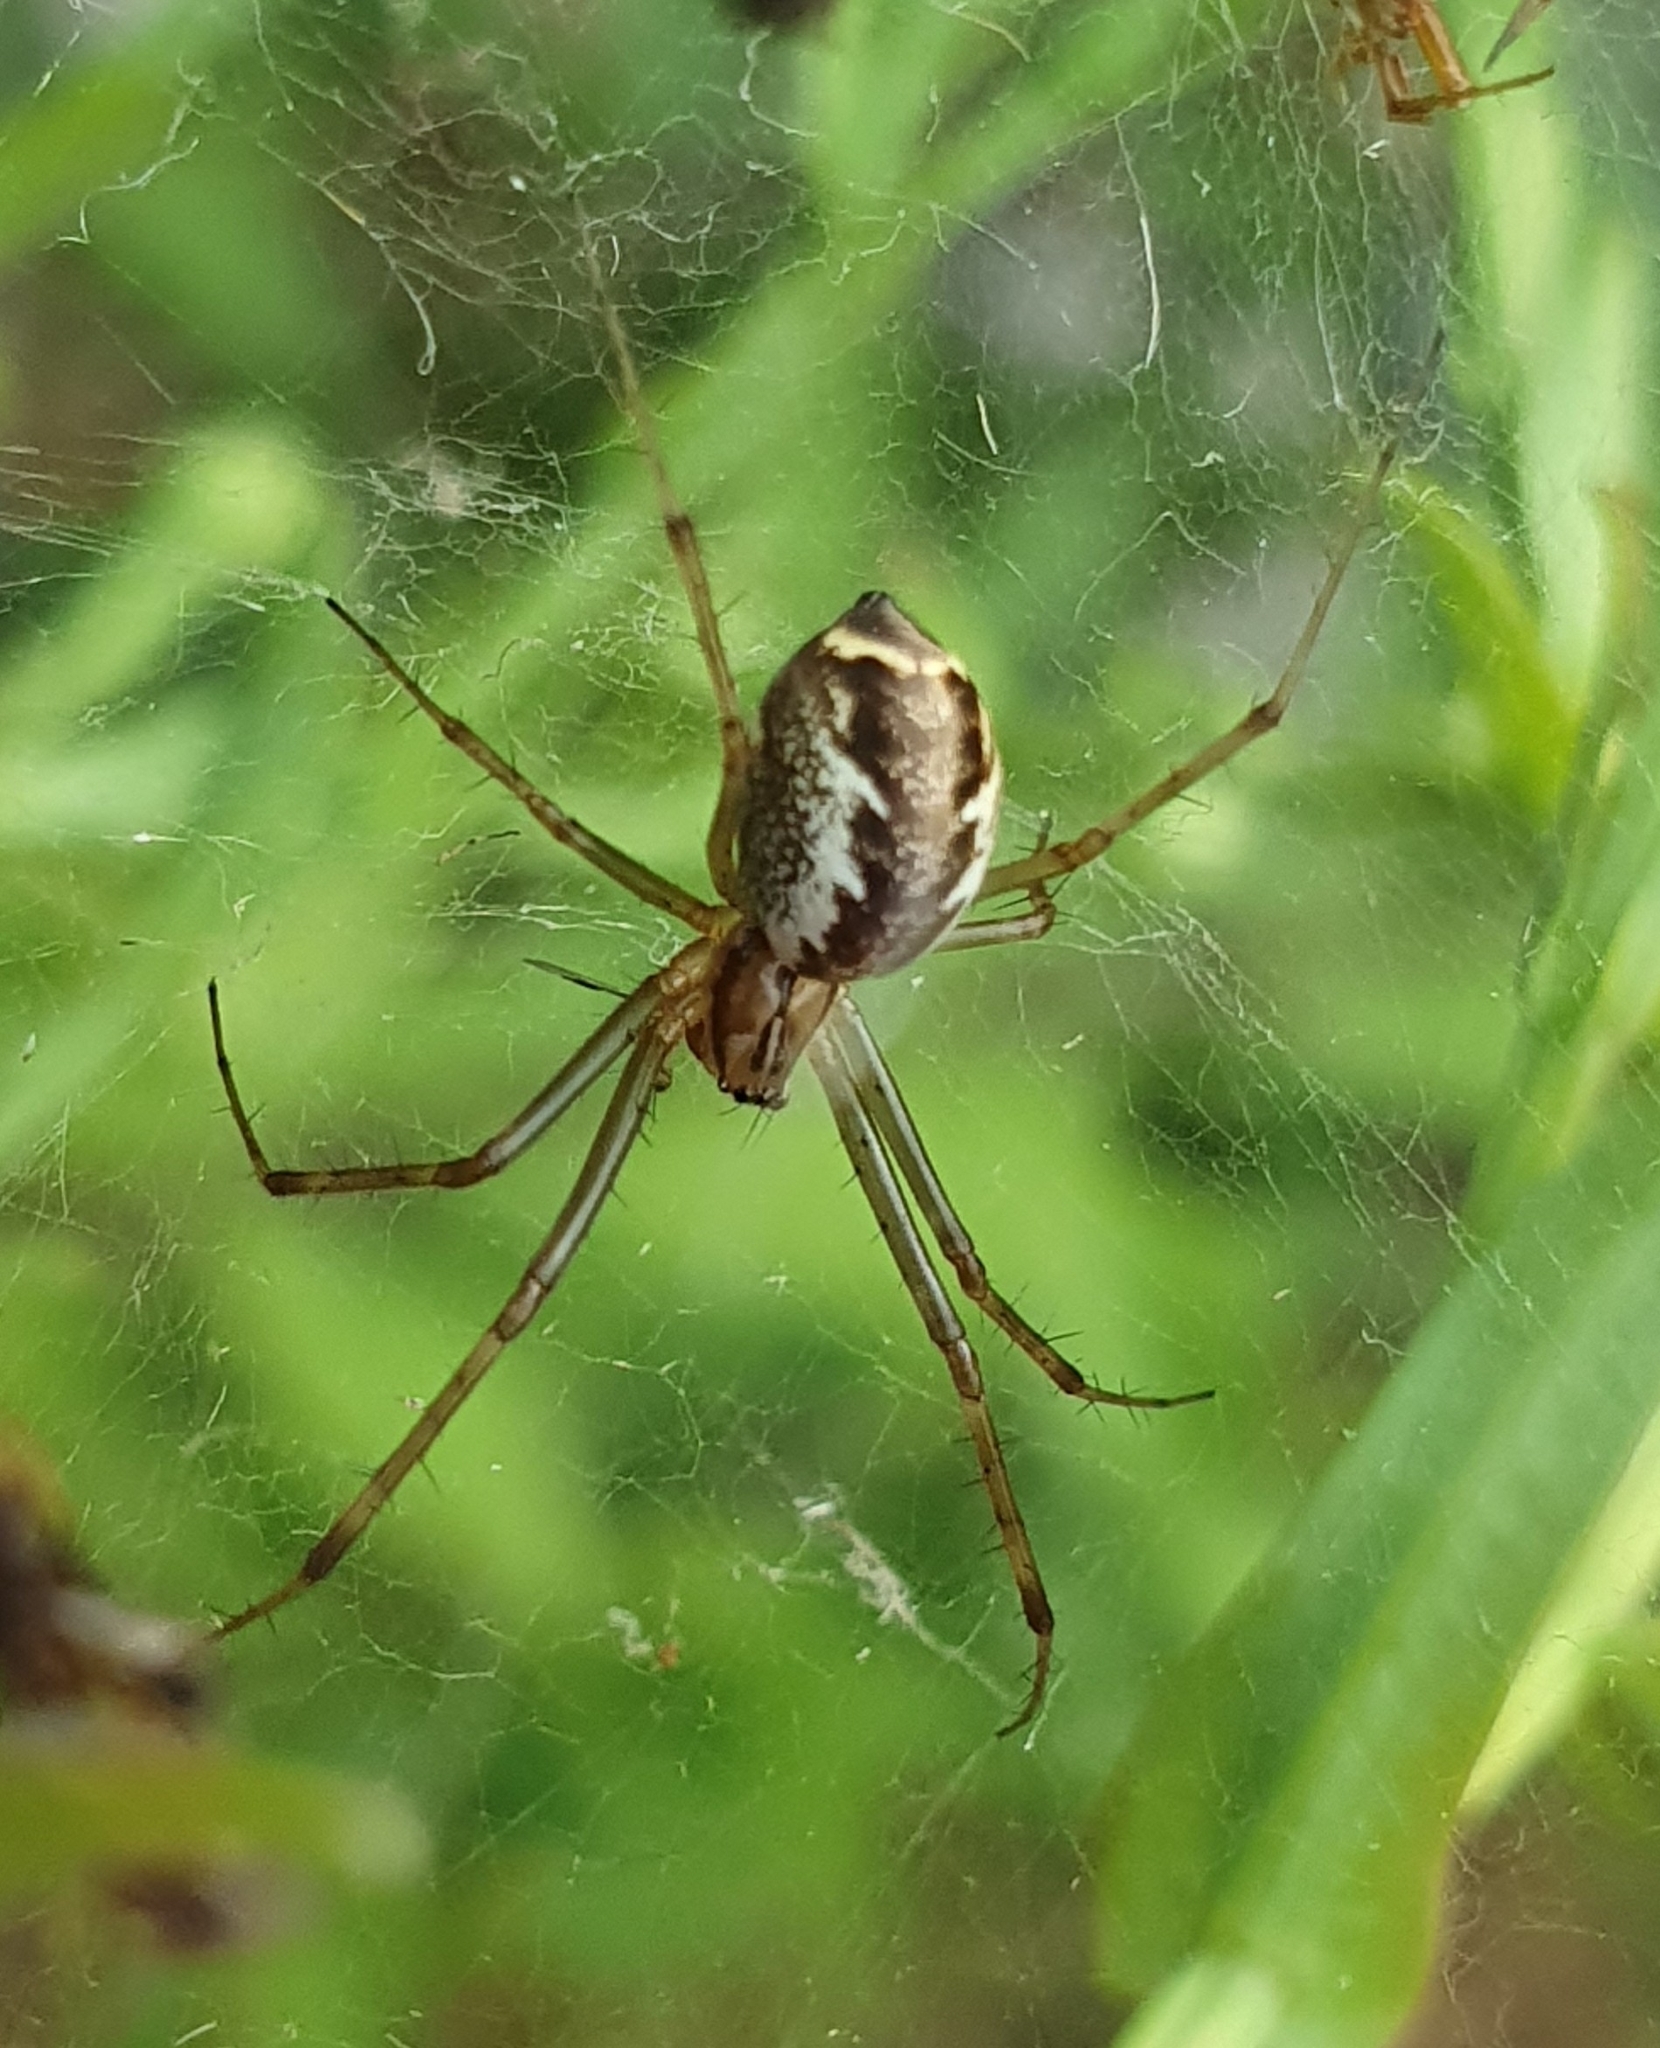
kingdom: Animalia
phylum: Arthropoda
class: Arachnida
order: Araneae
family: Linyphiidae
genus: Linyphia
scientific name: Linyphia triangularis
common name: Money spider
